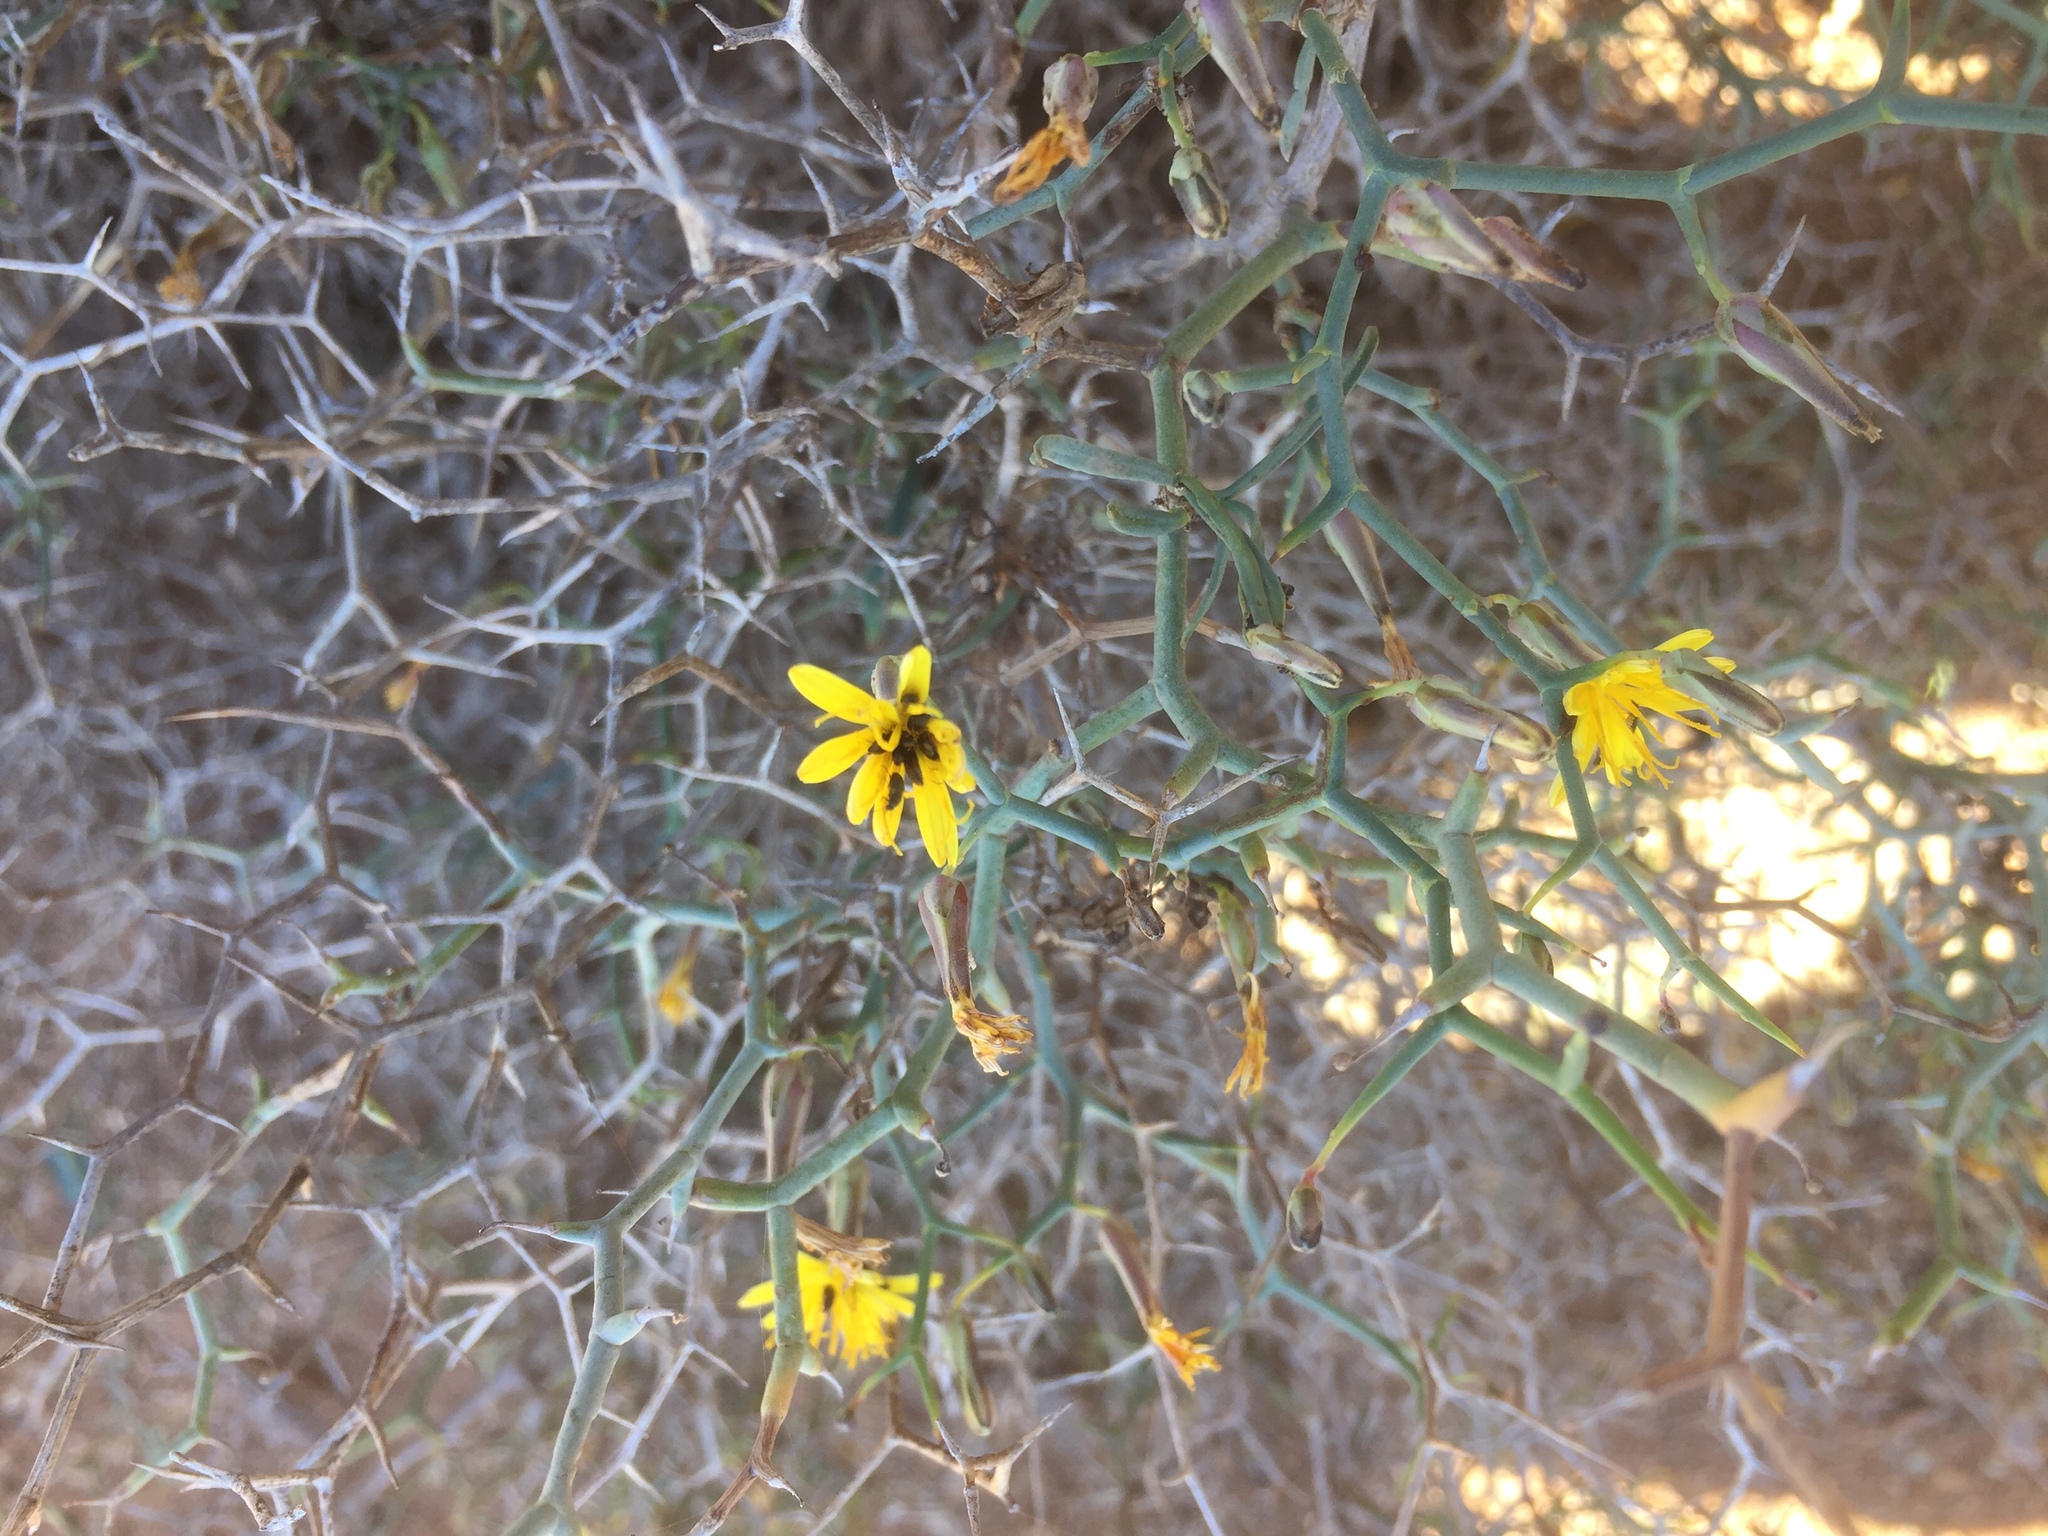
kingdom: Plantae
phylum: Tracheophyta
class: Magnoliopsida
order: Asterales
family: Asteraceae
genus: Launaea
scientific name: Launaea arborescens
